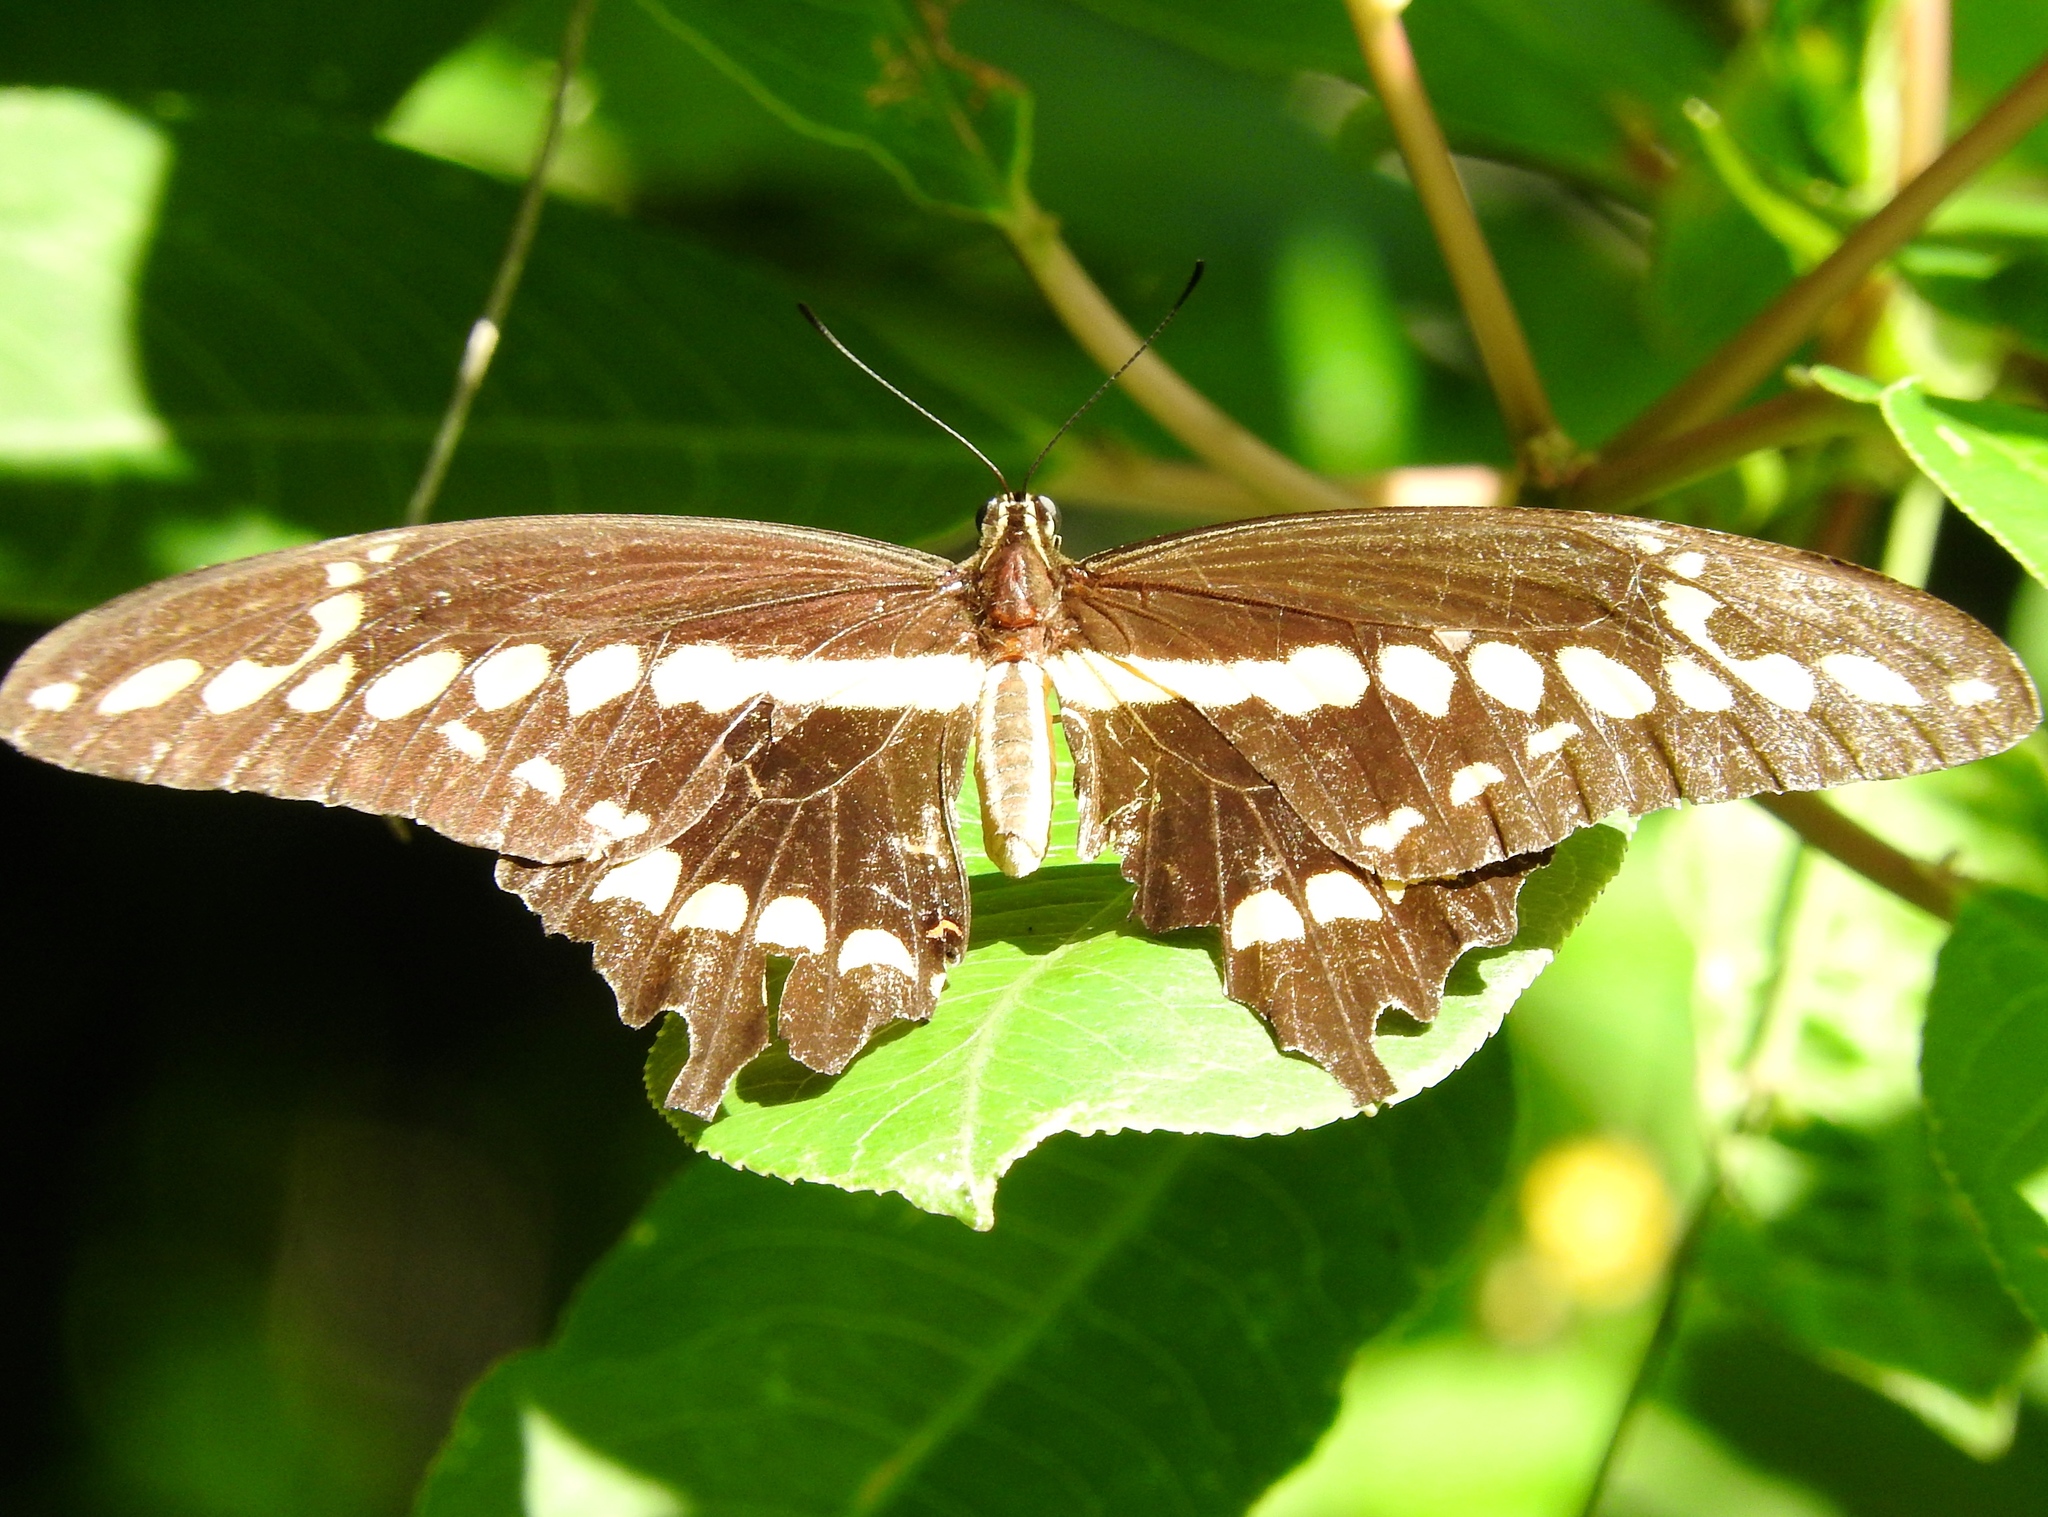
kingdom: Animalia
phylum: Arthropoda
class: Insecta
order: Lepidoptera
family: Papilionidae
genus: Papilio
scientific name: Papilio rumiko
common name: Western giant swallowtail
